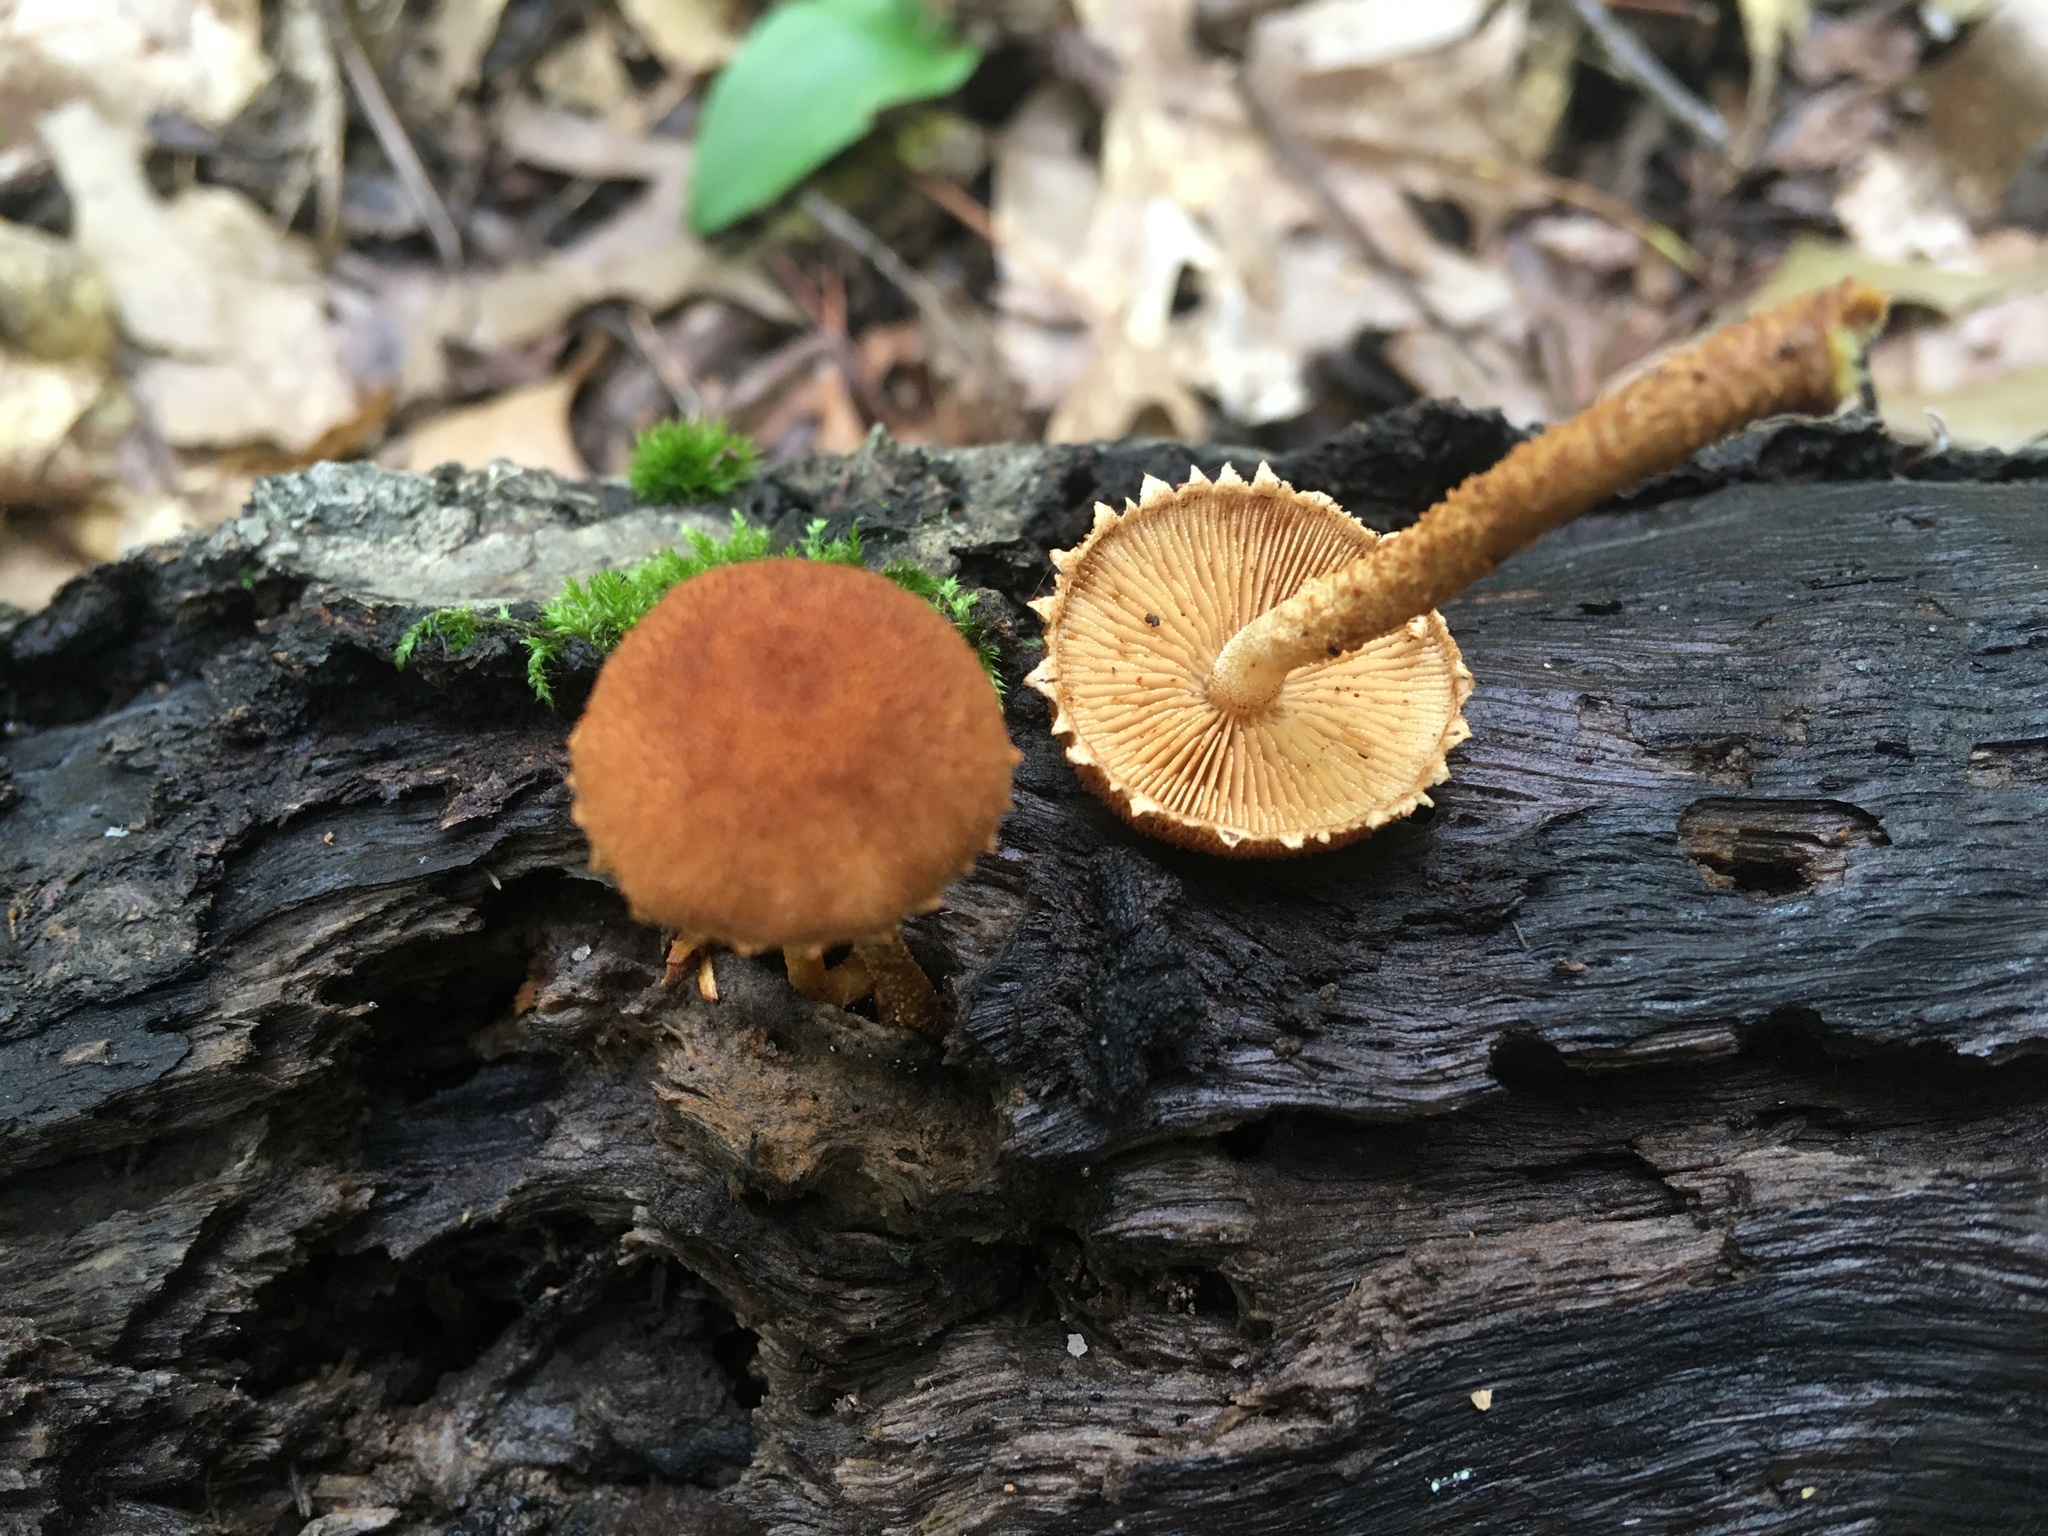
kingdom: Fungi
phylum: Basidiomycota
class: Agaricomycetes
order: Agaricales
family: Tubariaceae
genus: Flammulaster
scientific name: Flammulaster erinaceellus
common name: Powder-scale pholiota
